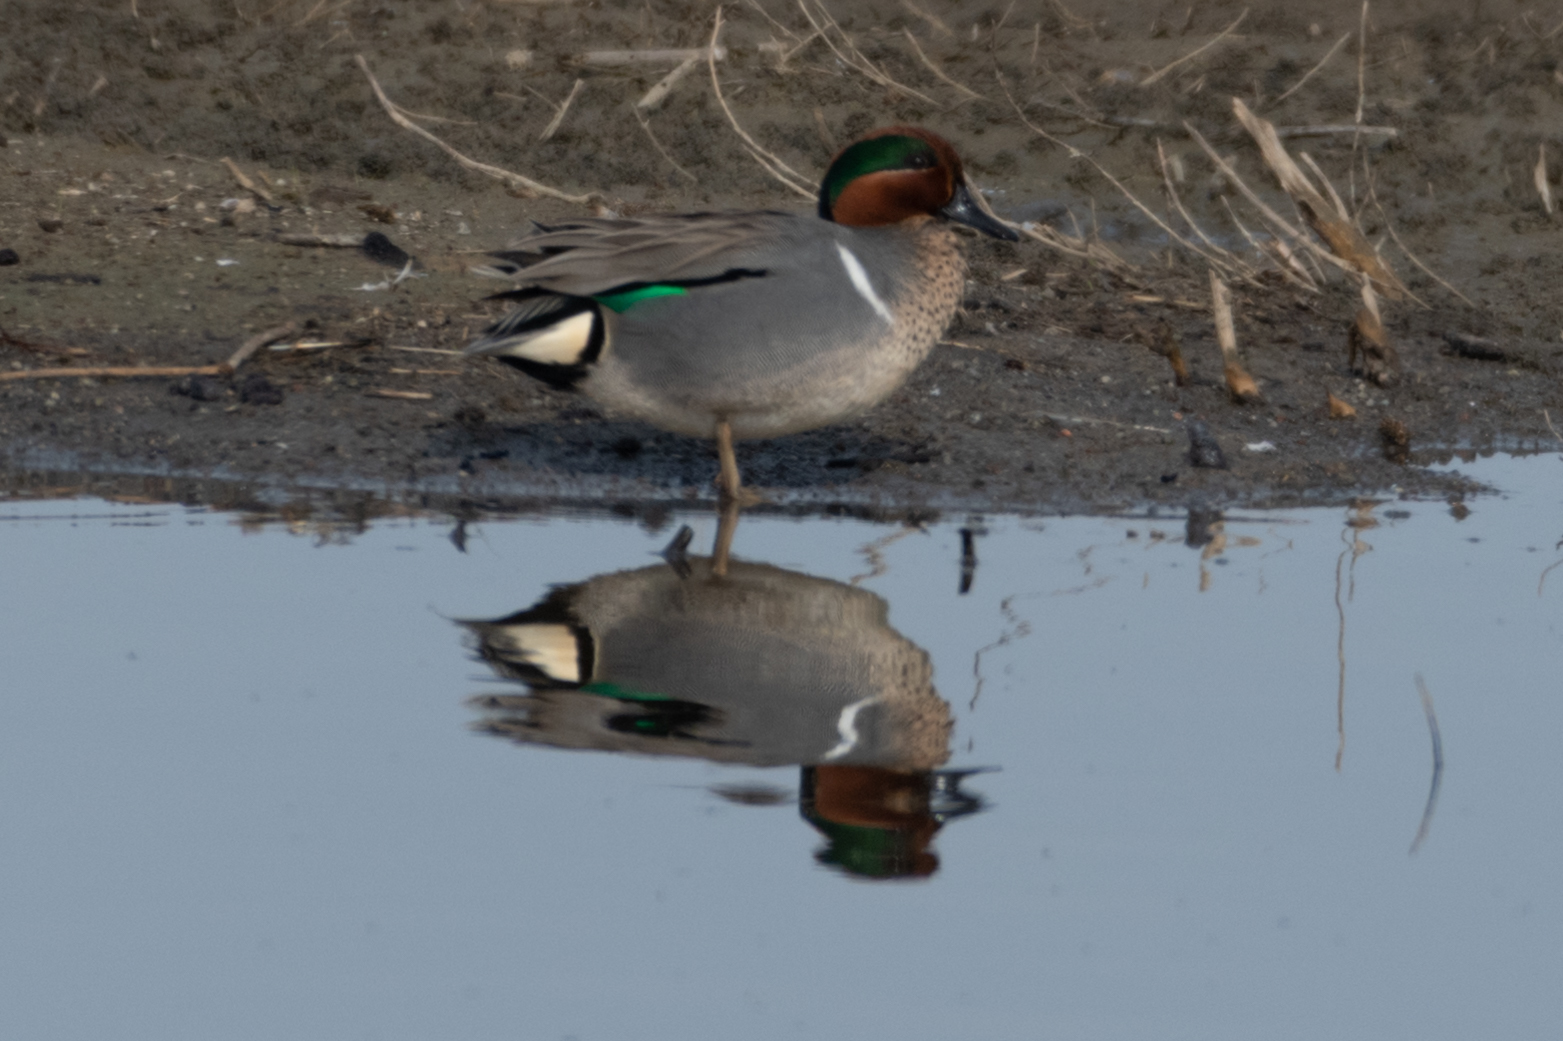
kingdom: Animalia
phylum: Chordata
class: Aves
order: Anseriformes
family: Anatidae
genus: Anas
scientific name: Anas crecca
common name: Eurasian teal
